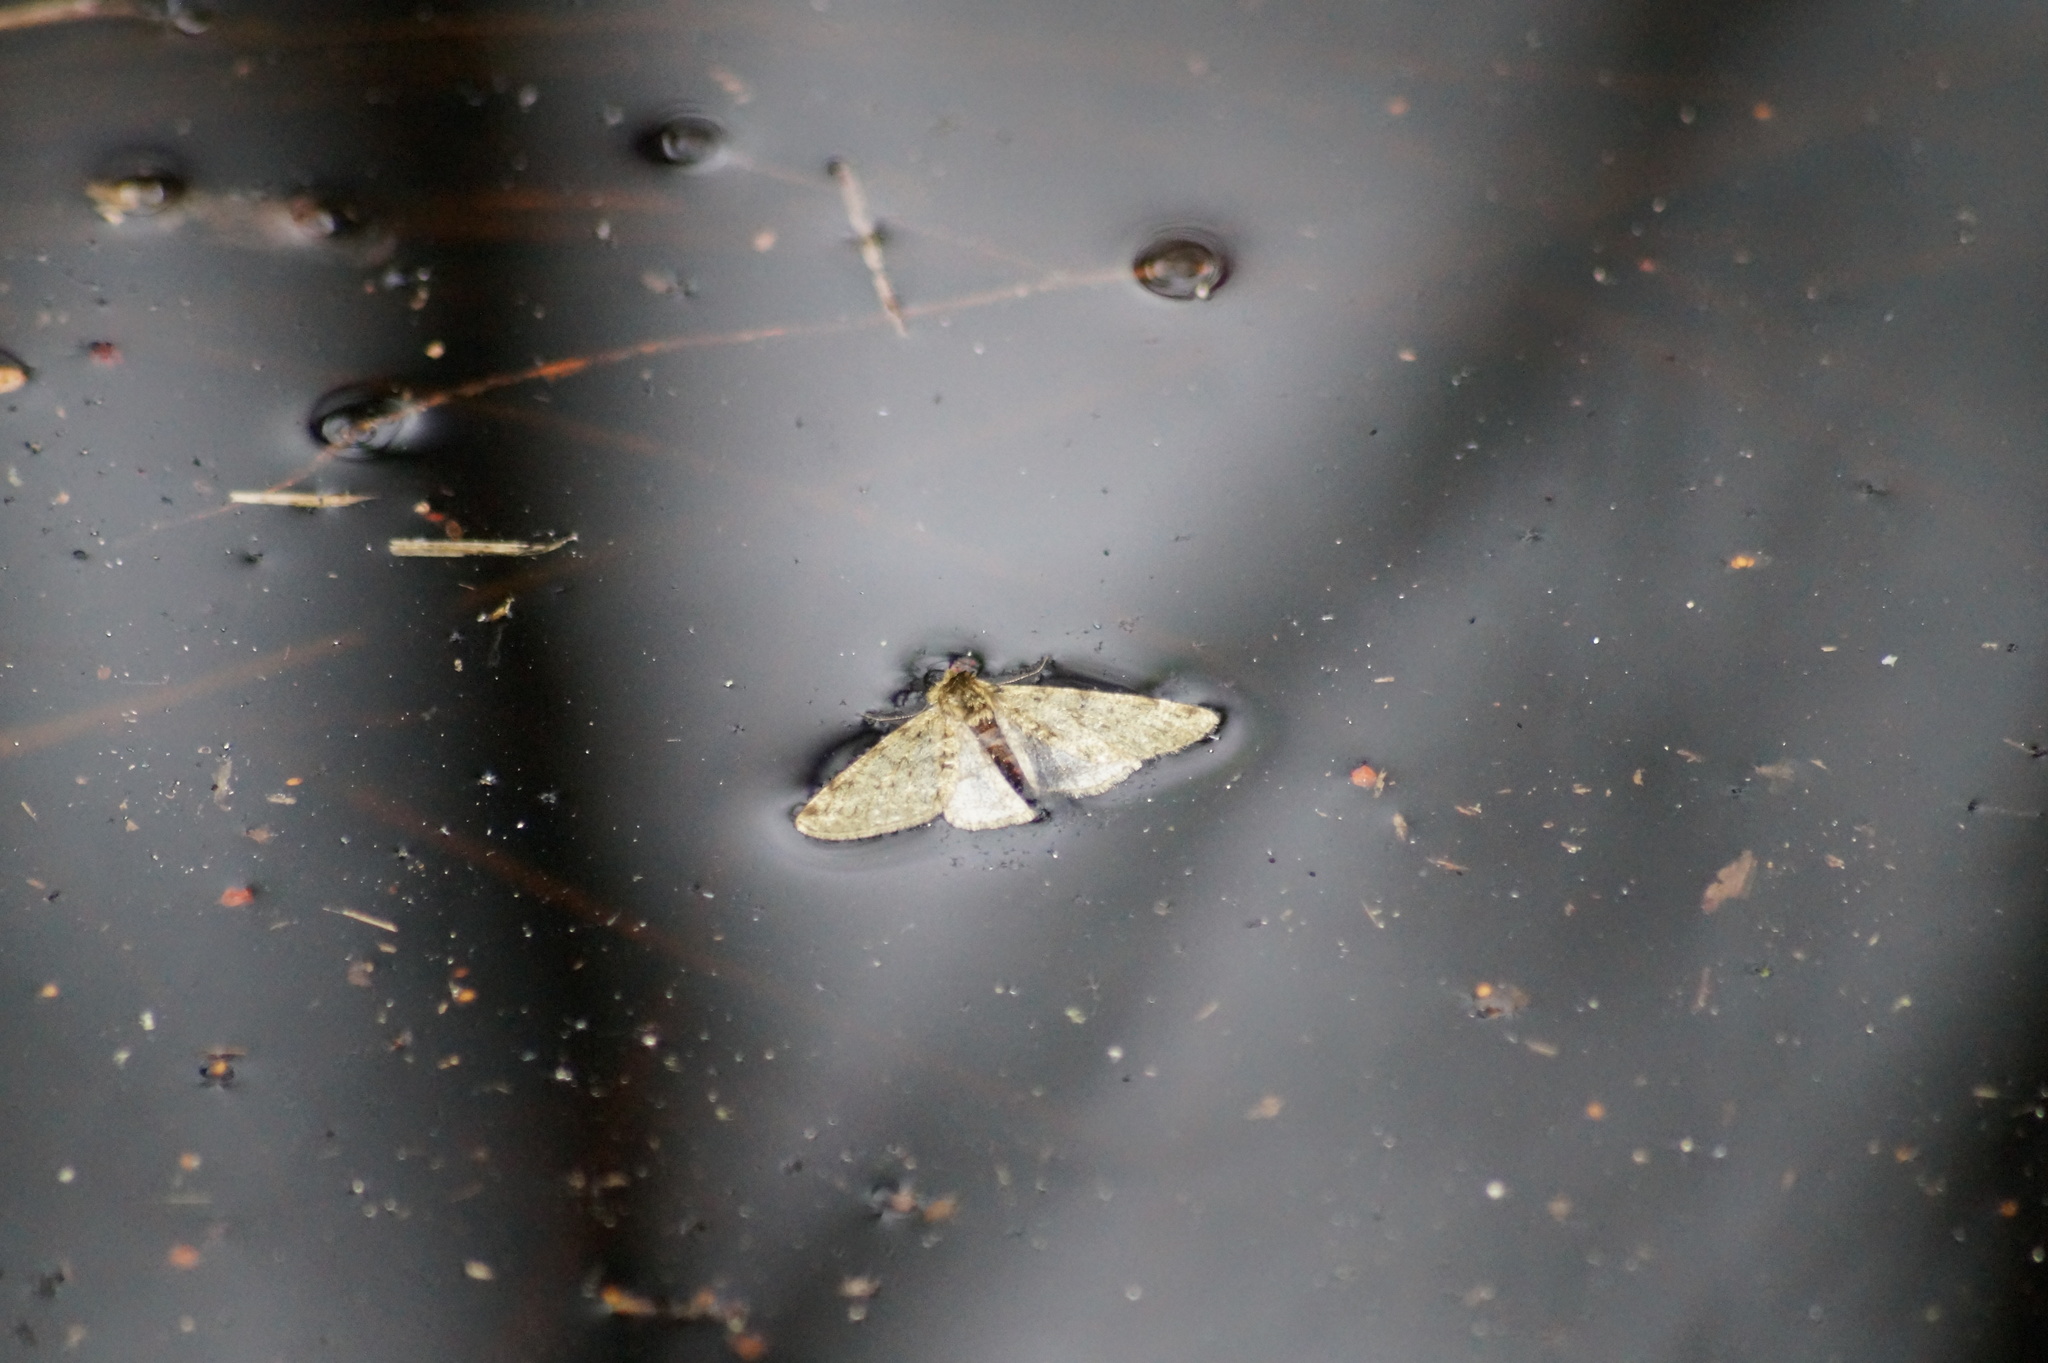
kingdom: Animalia
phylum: Arthropoda
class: Insecta
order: Lepidoptera
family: Geometridae
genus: Phigalia
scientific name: Phigalia pilosaria
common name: Pale brindled beauty
